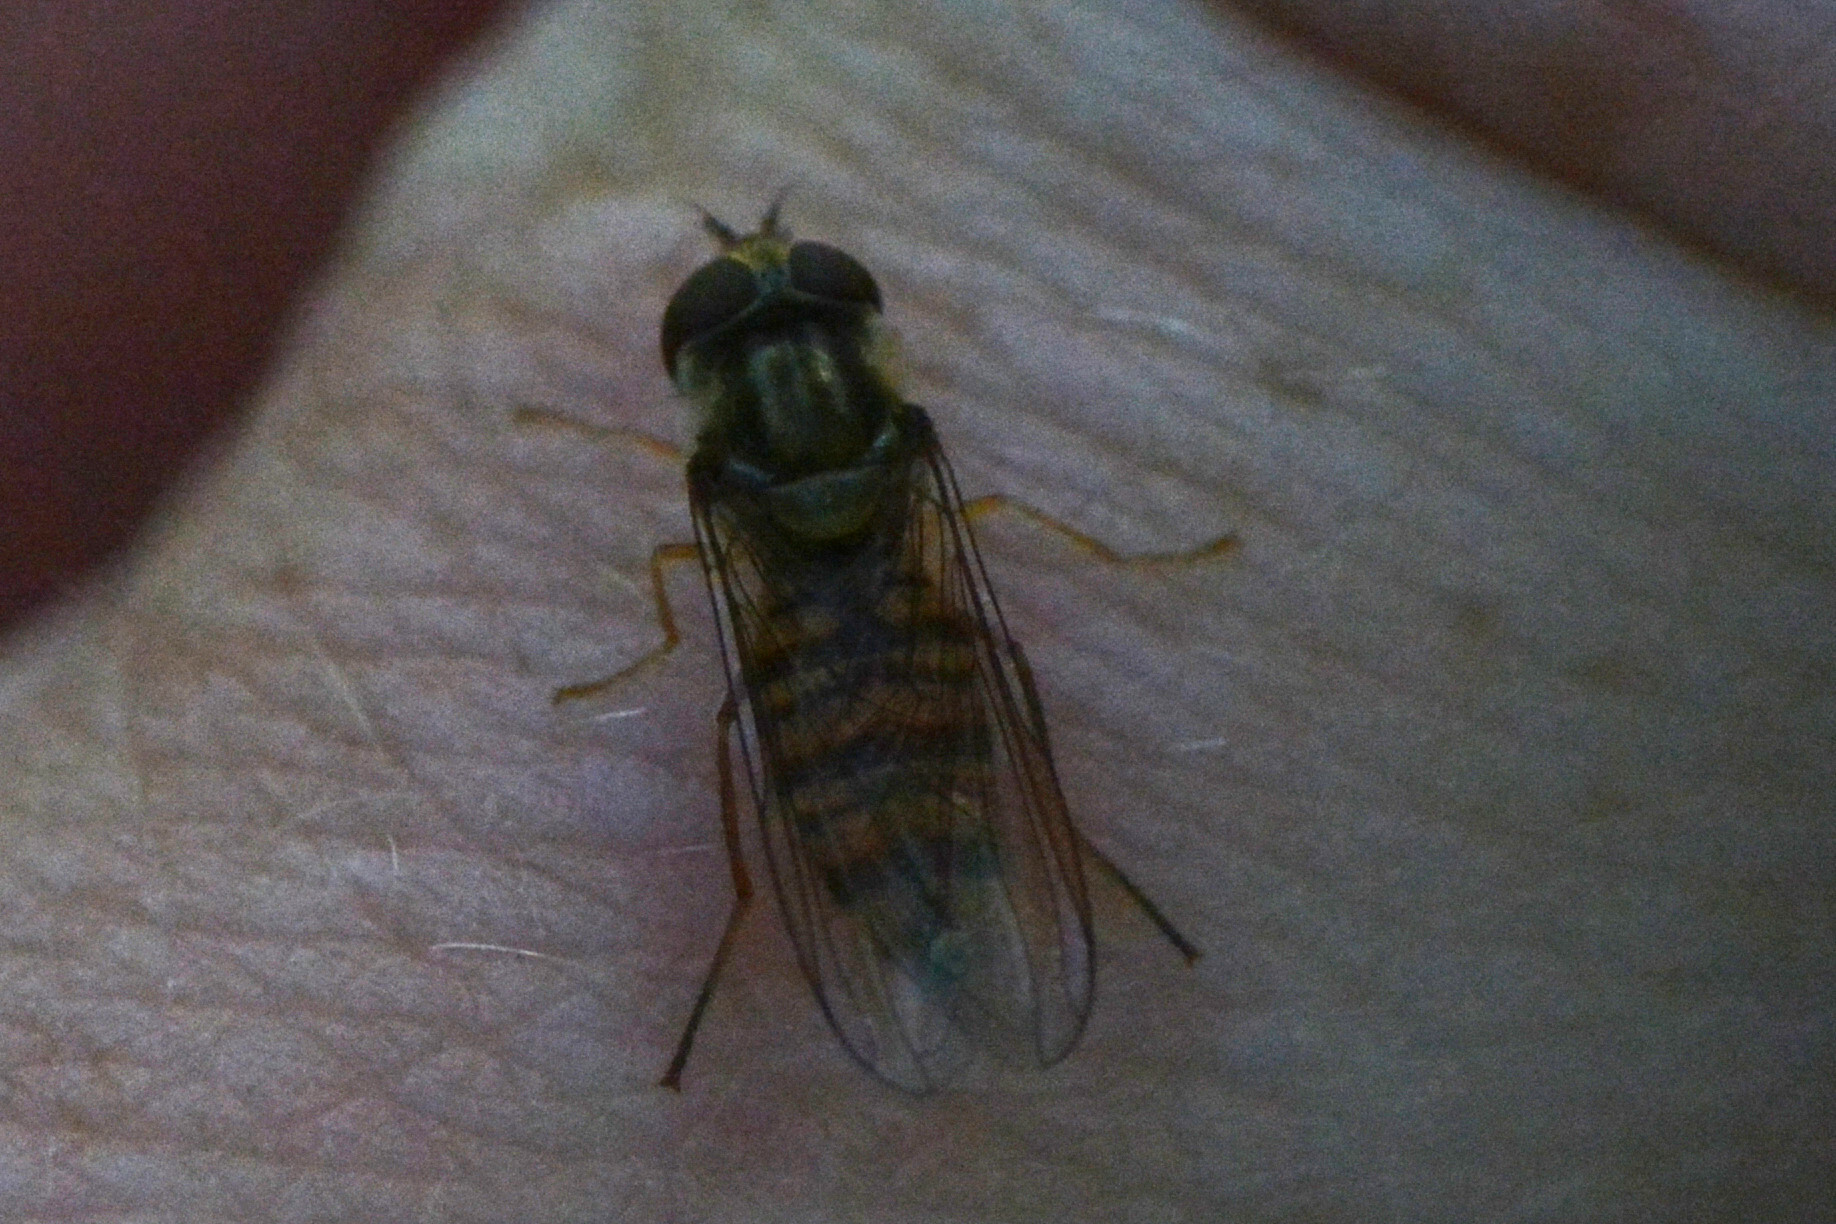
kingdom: Animalia
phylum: Arthropoda
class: Insecta
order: Diptera
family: Syrphidae
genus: Episyrphus
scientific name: Episyrphus balteatus
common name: Marmalade hoverfly
